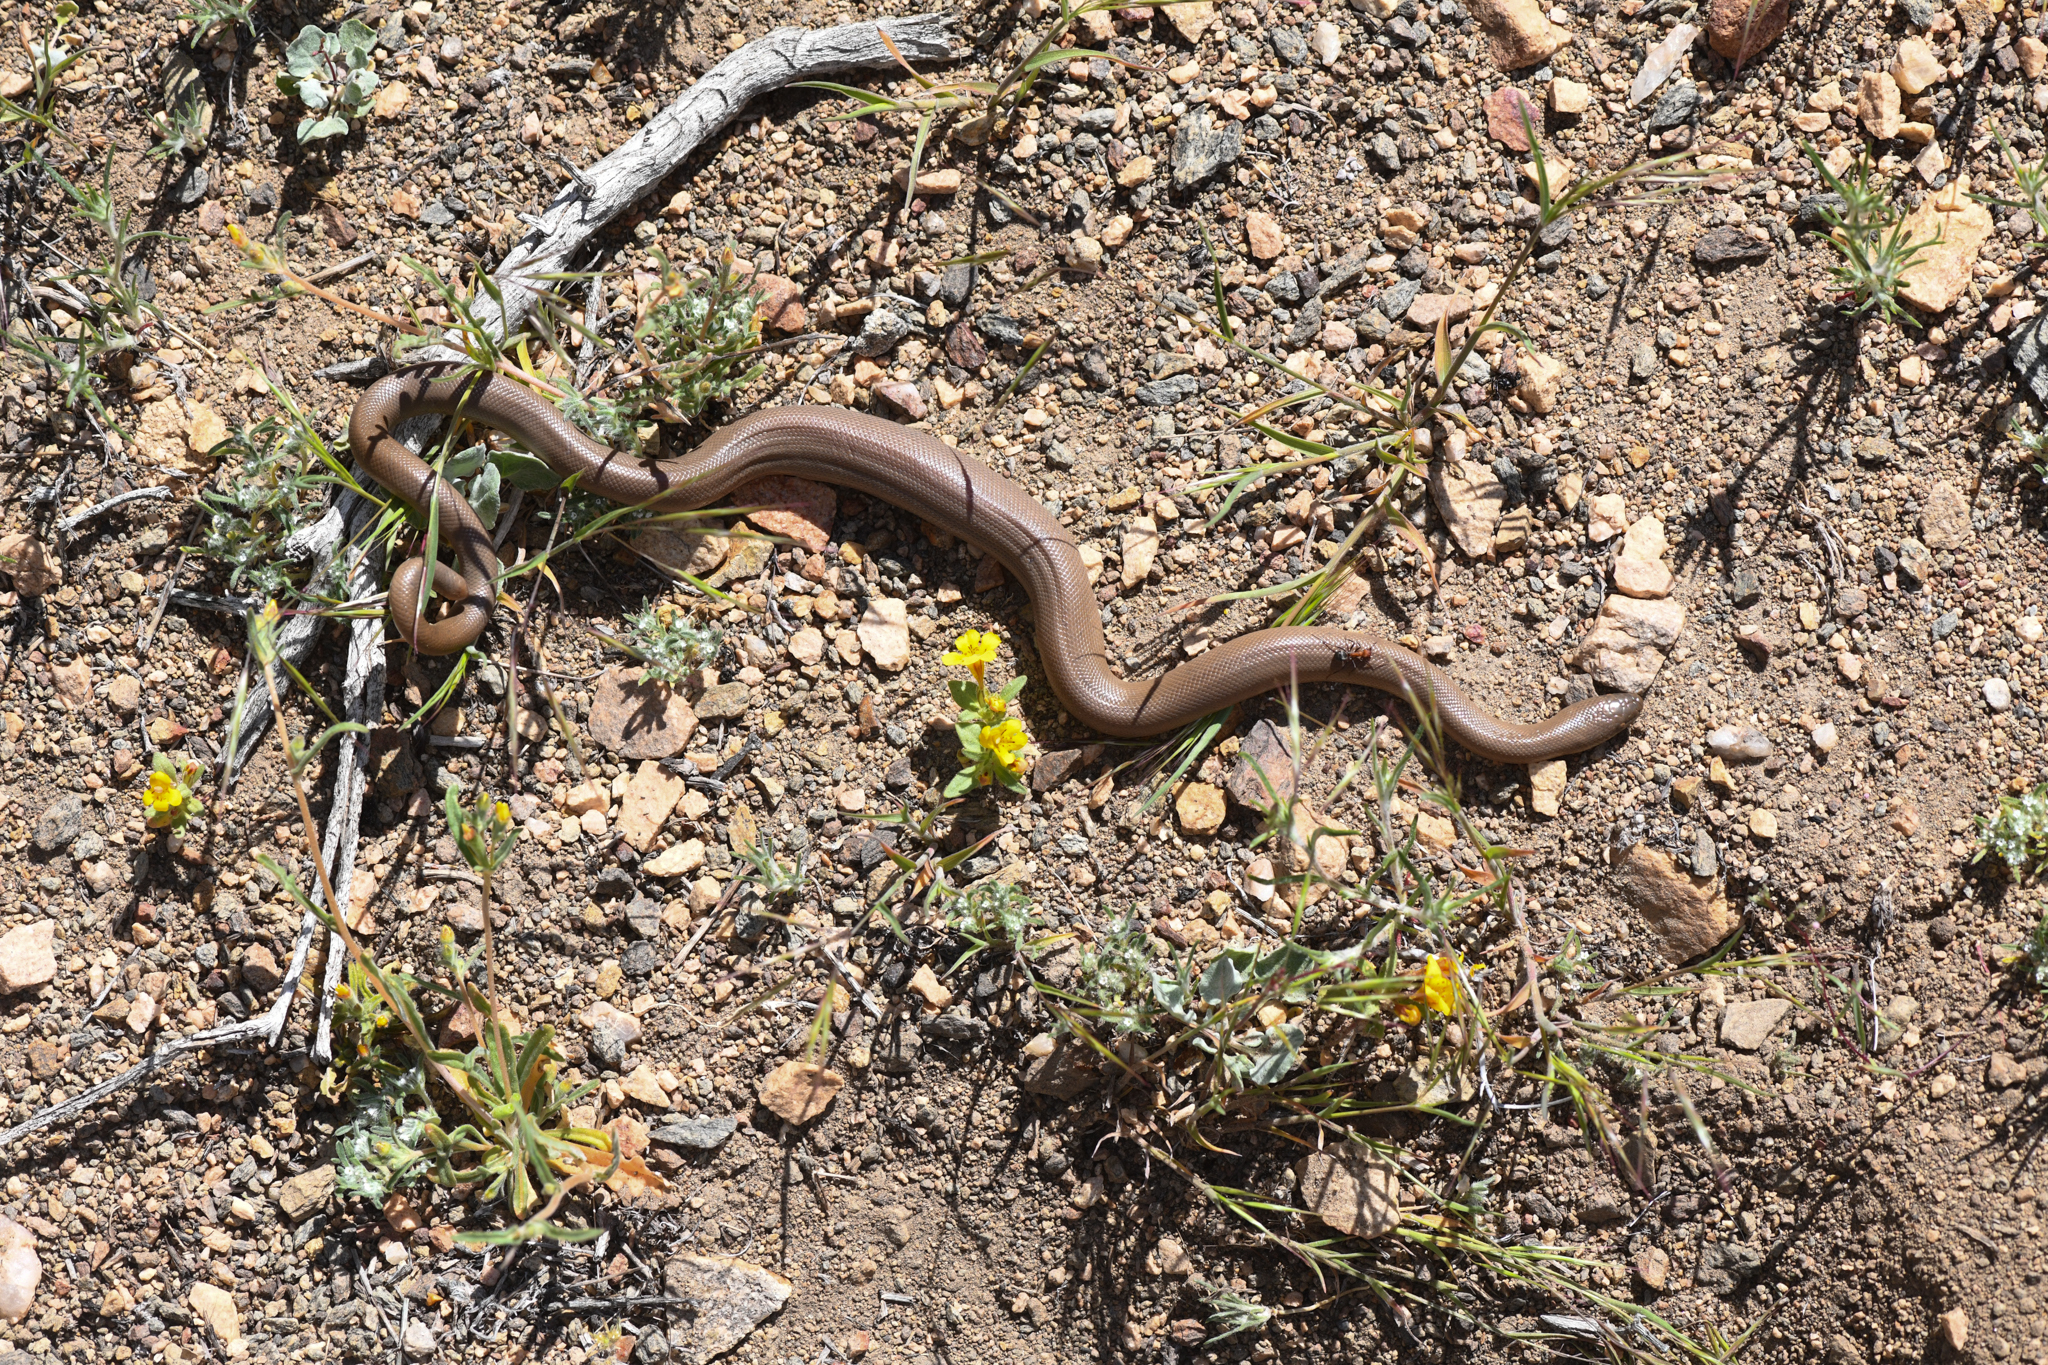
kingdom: Animalia
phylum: Chordata
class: Squamata
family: Boidae
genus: Charina
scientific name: Charina bottae
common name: Northern rubber boa
